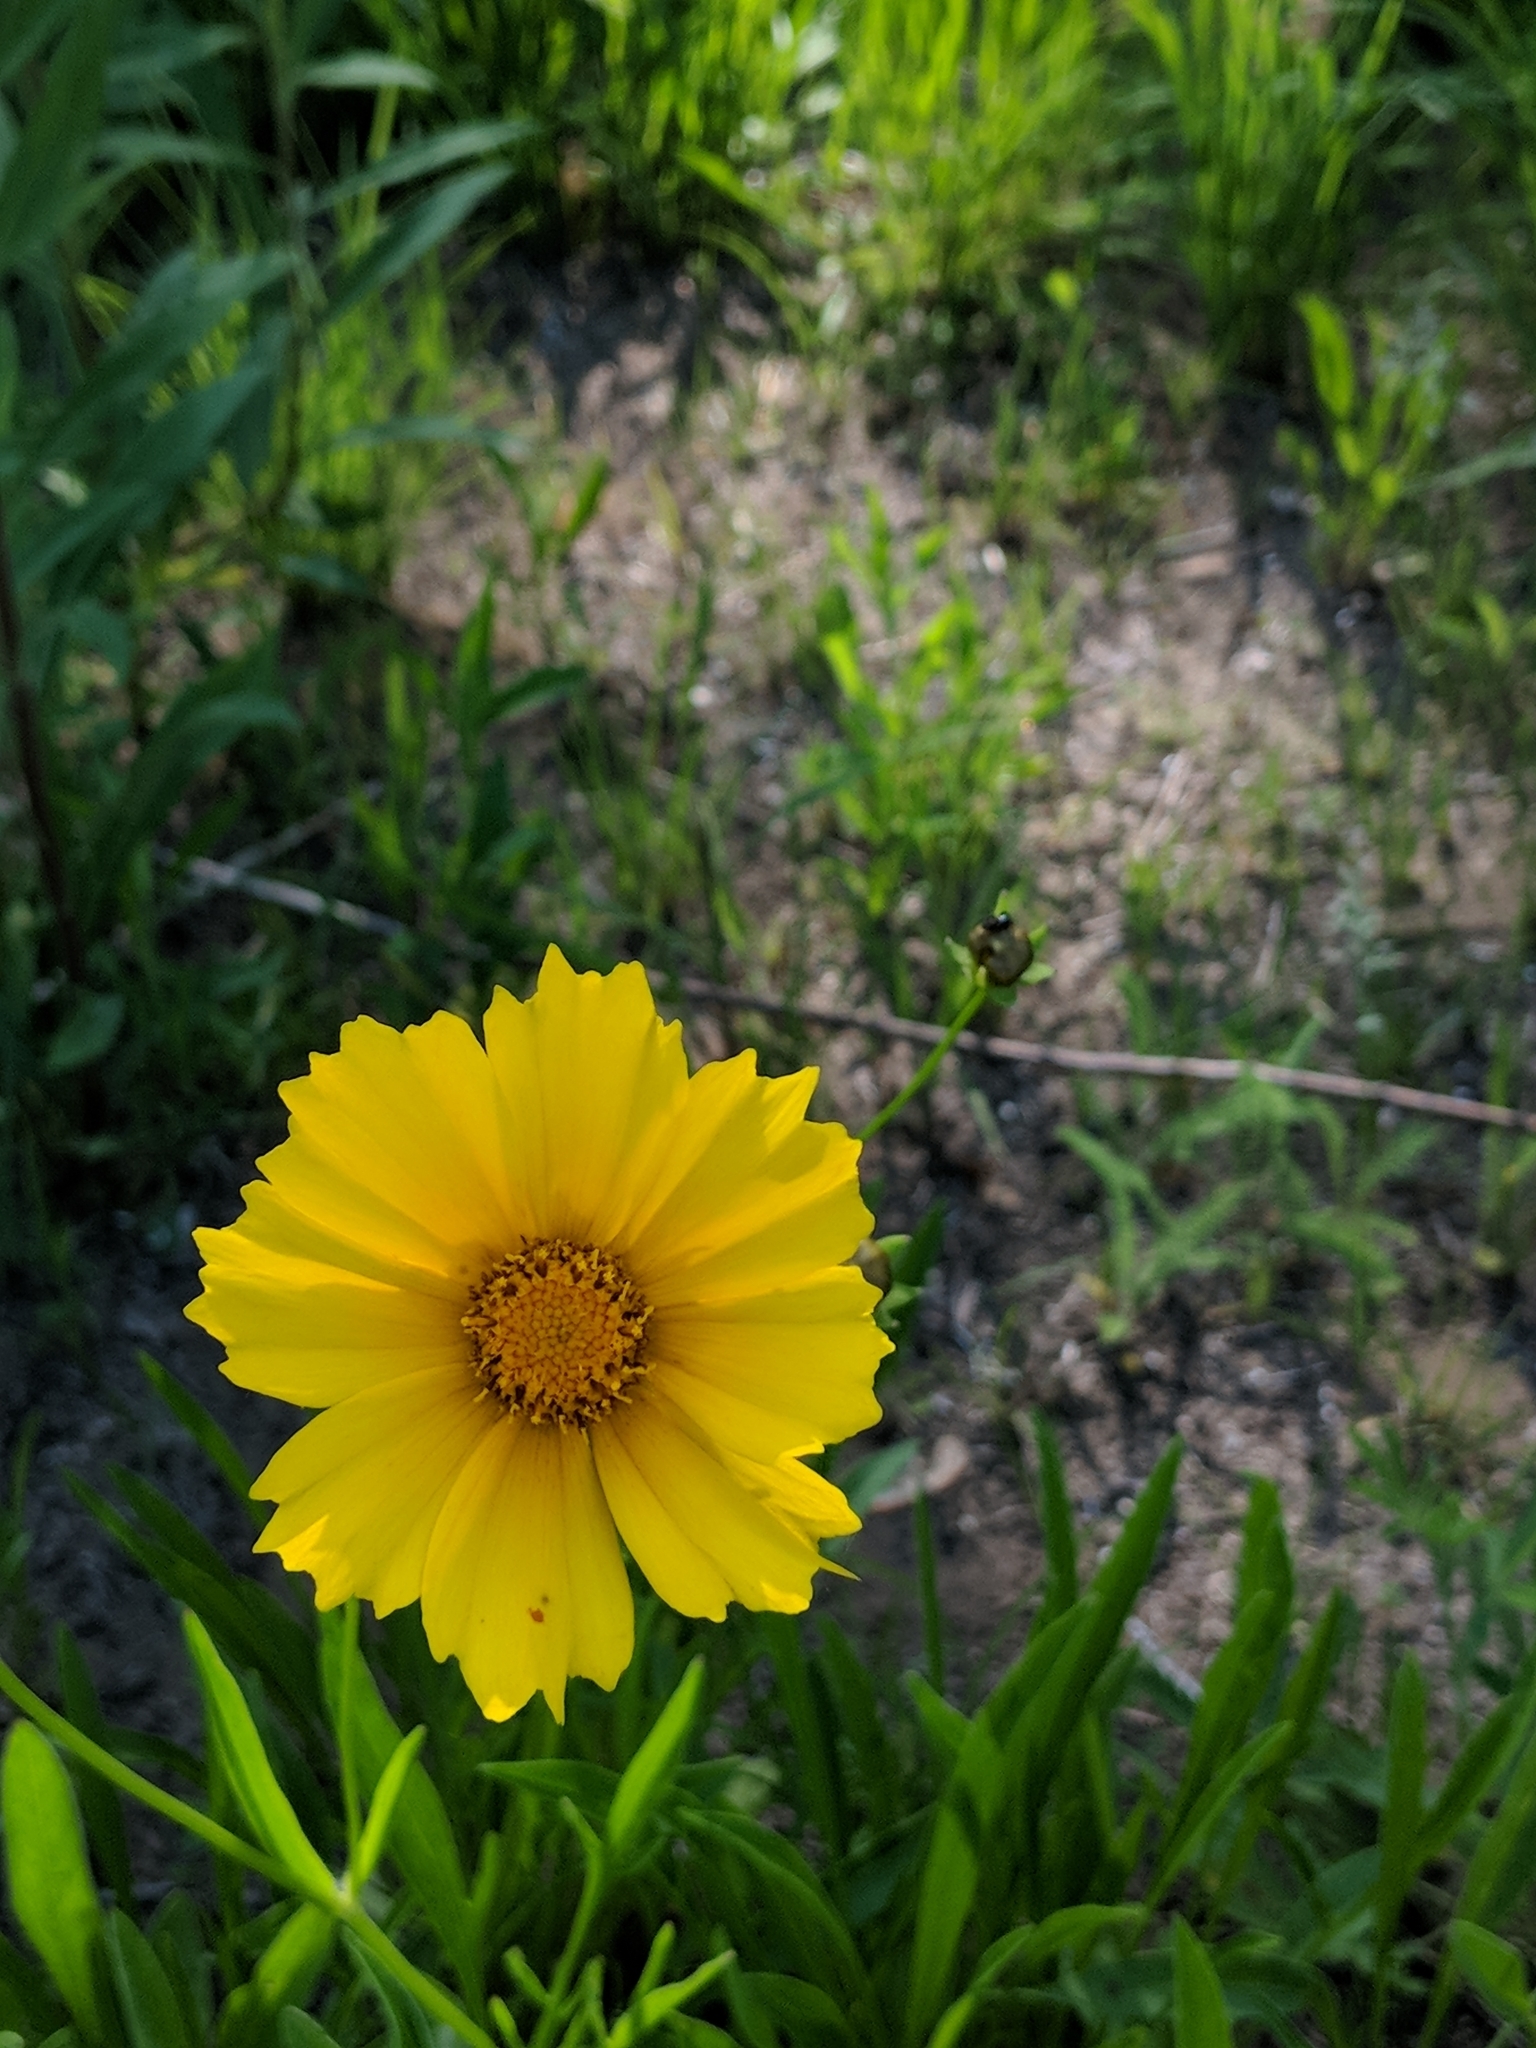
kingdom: Plantae
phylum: Tracheophyta
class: Magnoliopsida
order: Asterales
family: Asteraceae
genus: Coreopsis
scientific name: Coreopsis lanceolata
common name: Garden coreopsis
